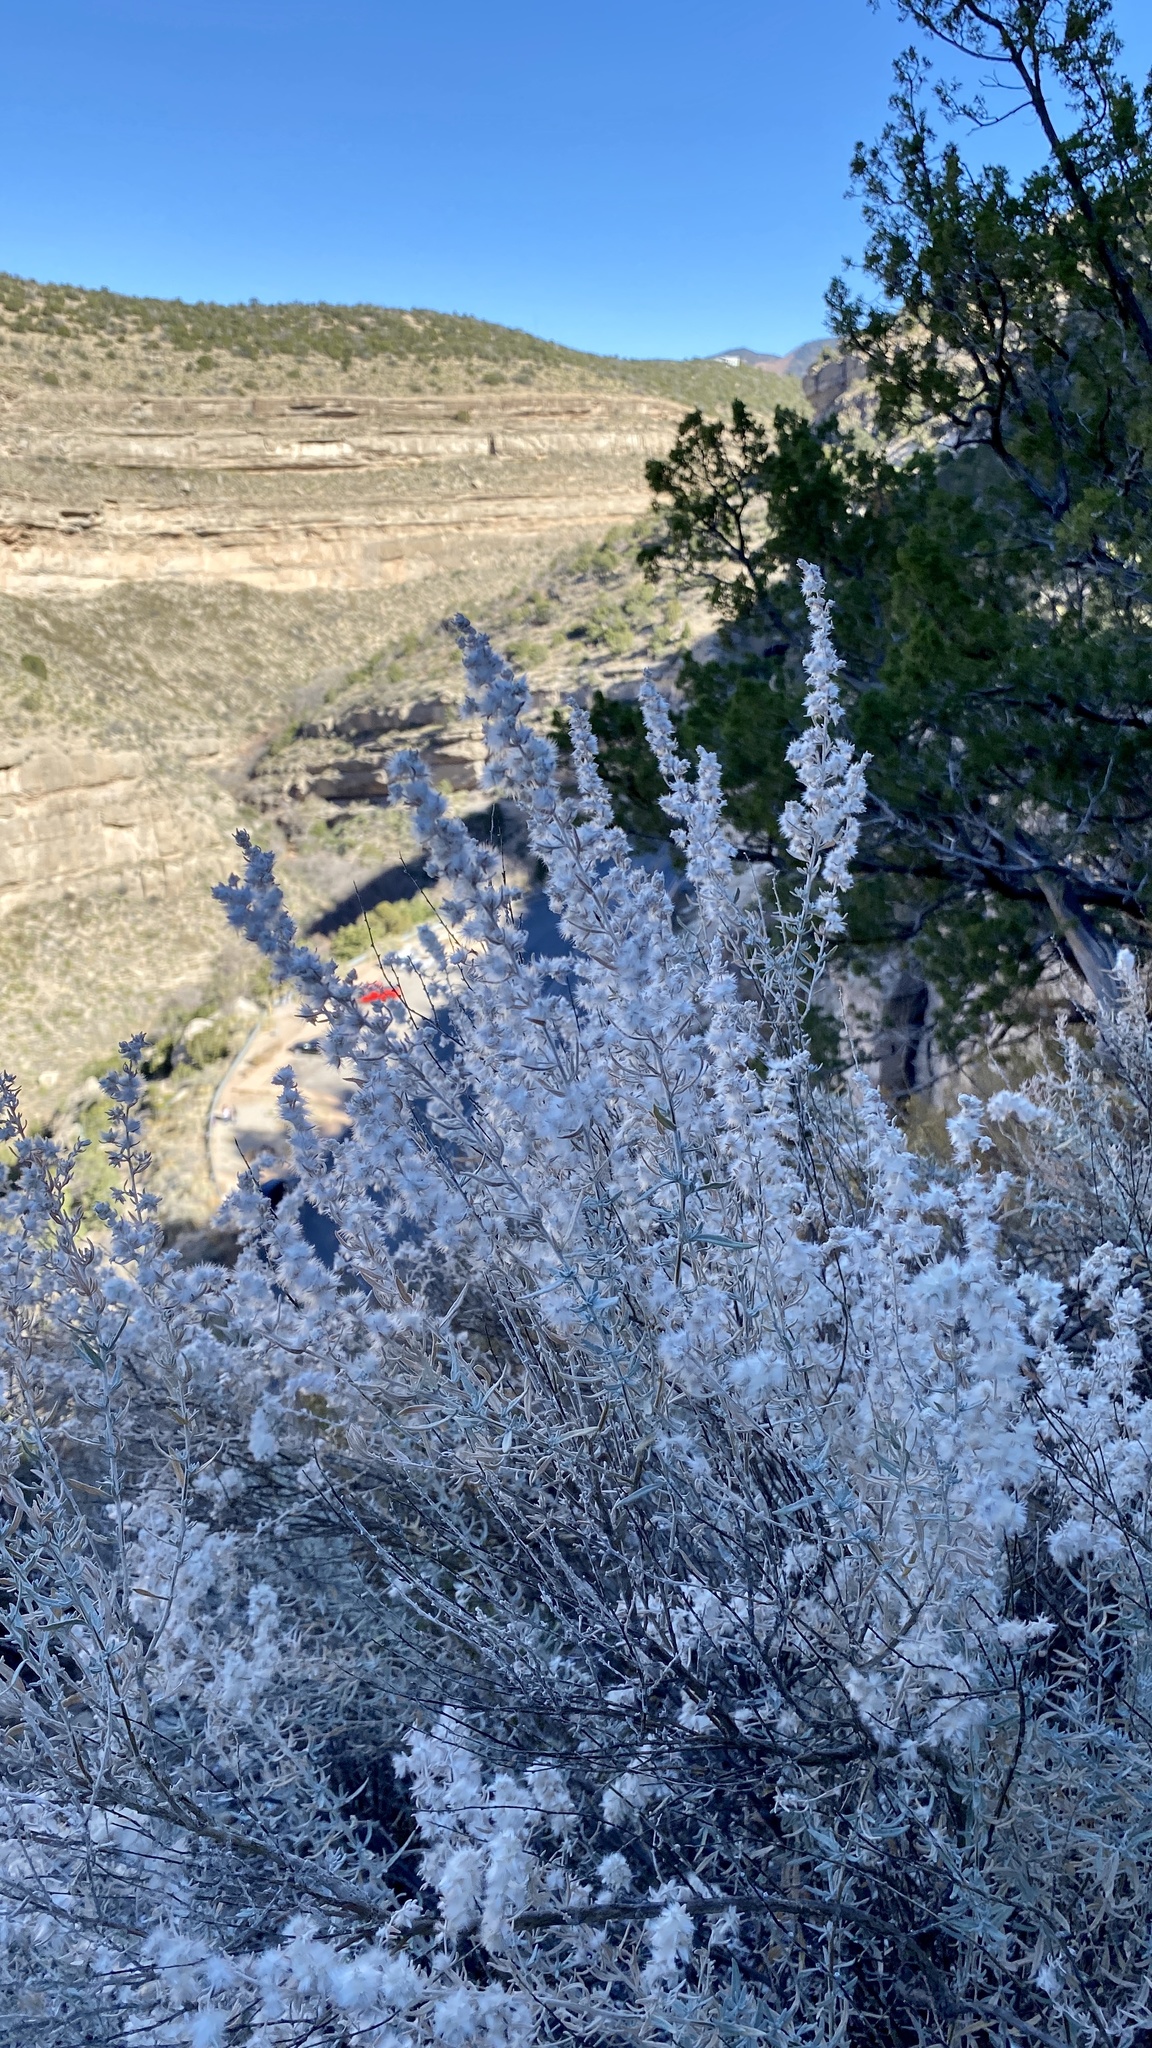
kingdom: Plantae
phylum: Tracheophyta
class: Magnoliopsida
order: Caryophyllales
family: Amaranthaceae
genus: Krascheninnikovia
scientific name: Krascheninnikovia lanata
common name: Winterfat
